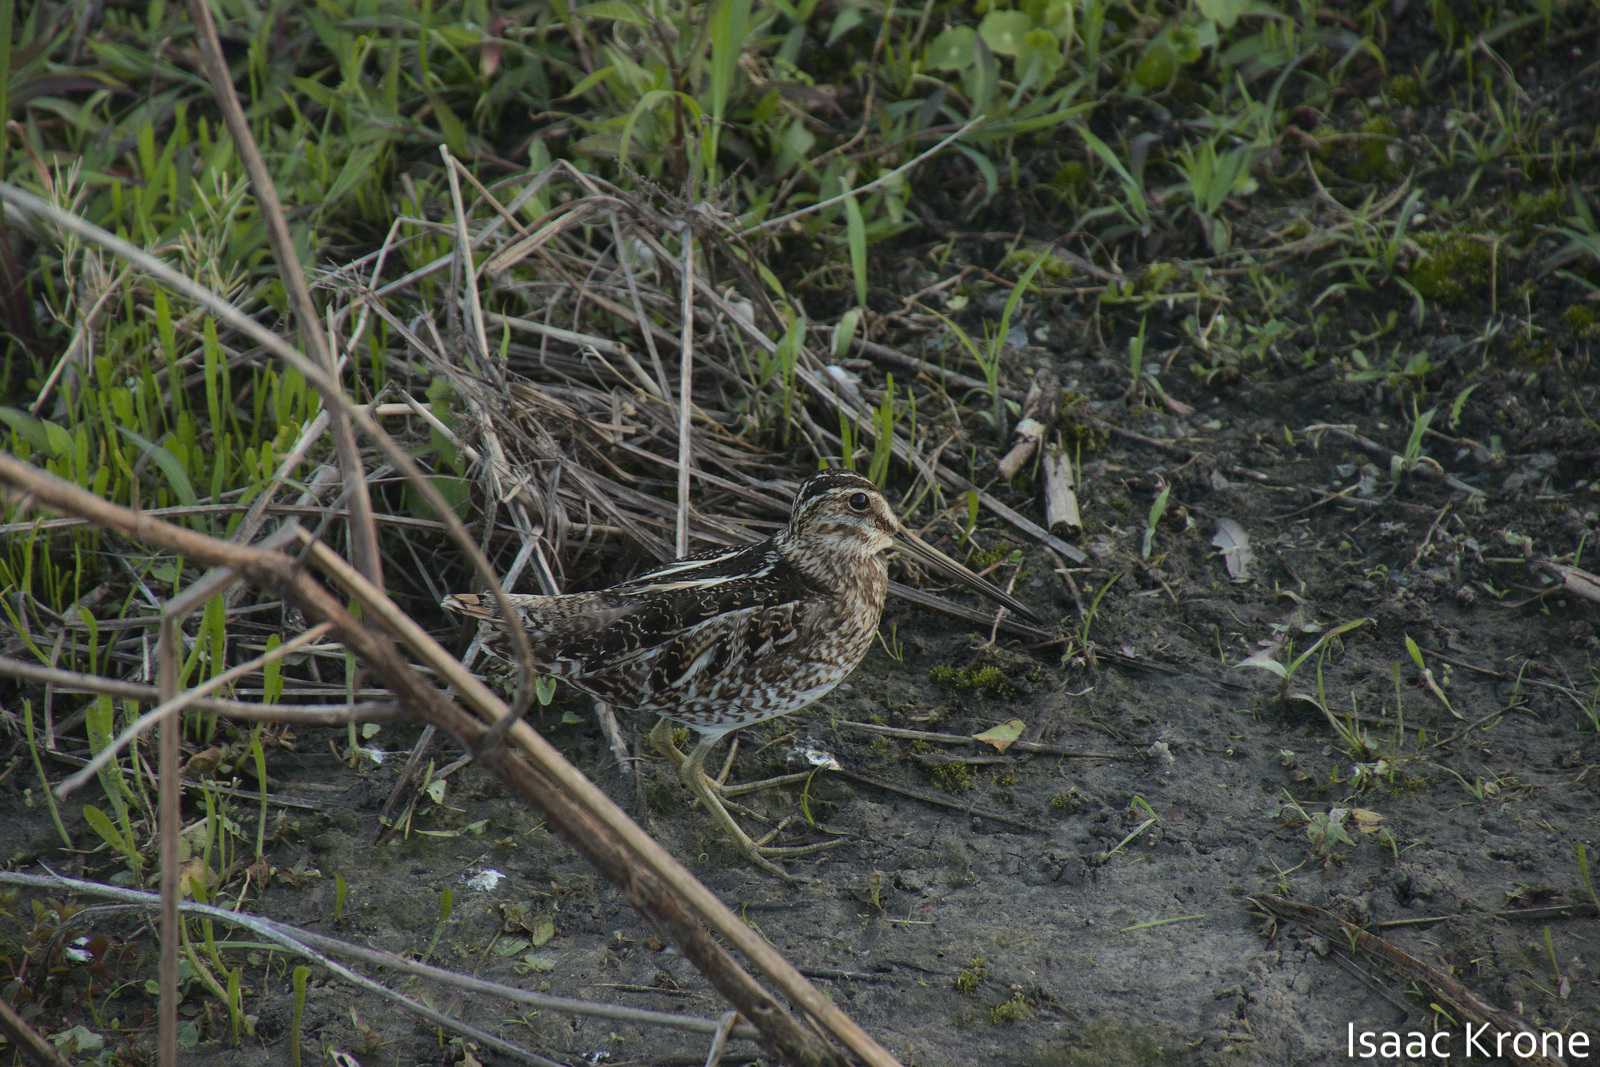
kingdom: Animalia
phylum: Chordata
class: Aves
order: Charadriiformes
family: Scolopacidae
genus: Gallinago
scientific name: Gallinago delicata
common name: Wilson's snipe
